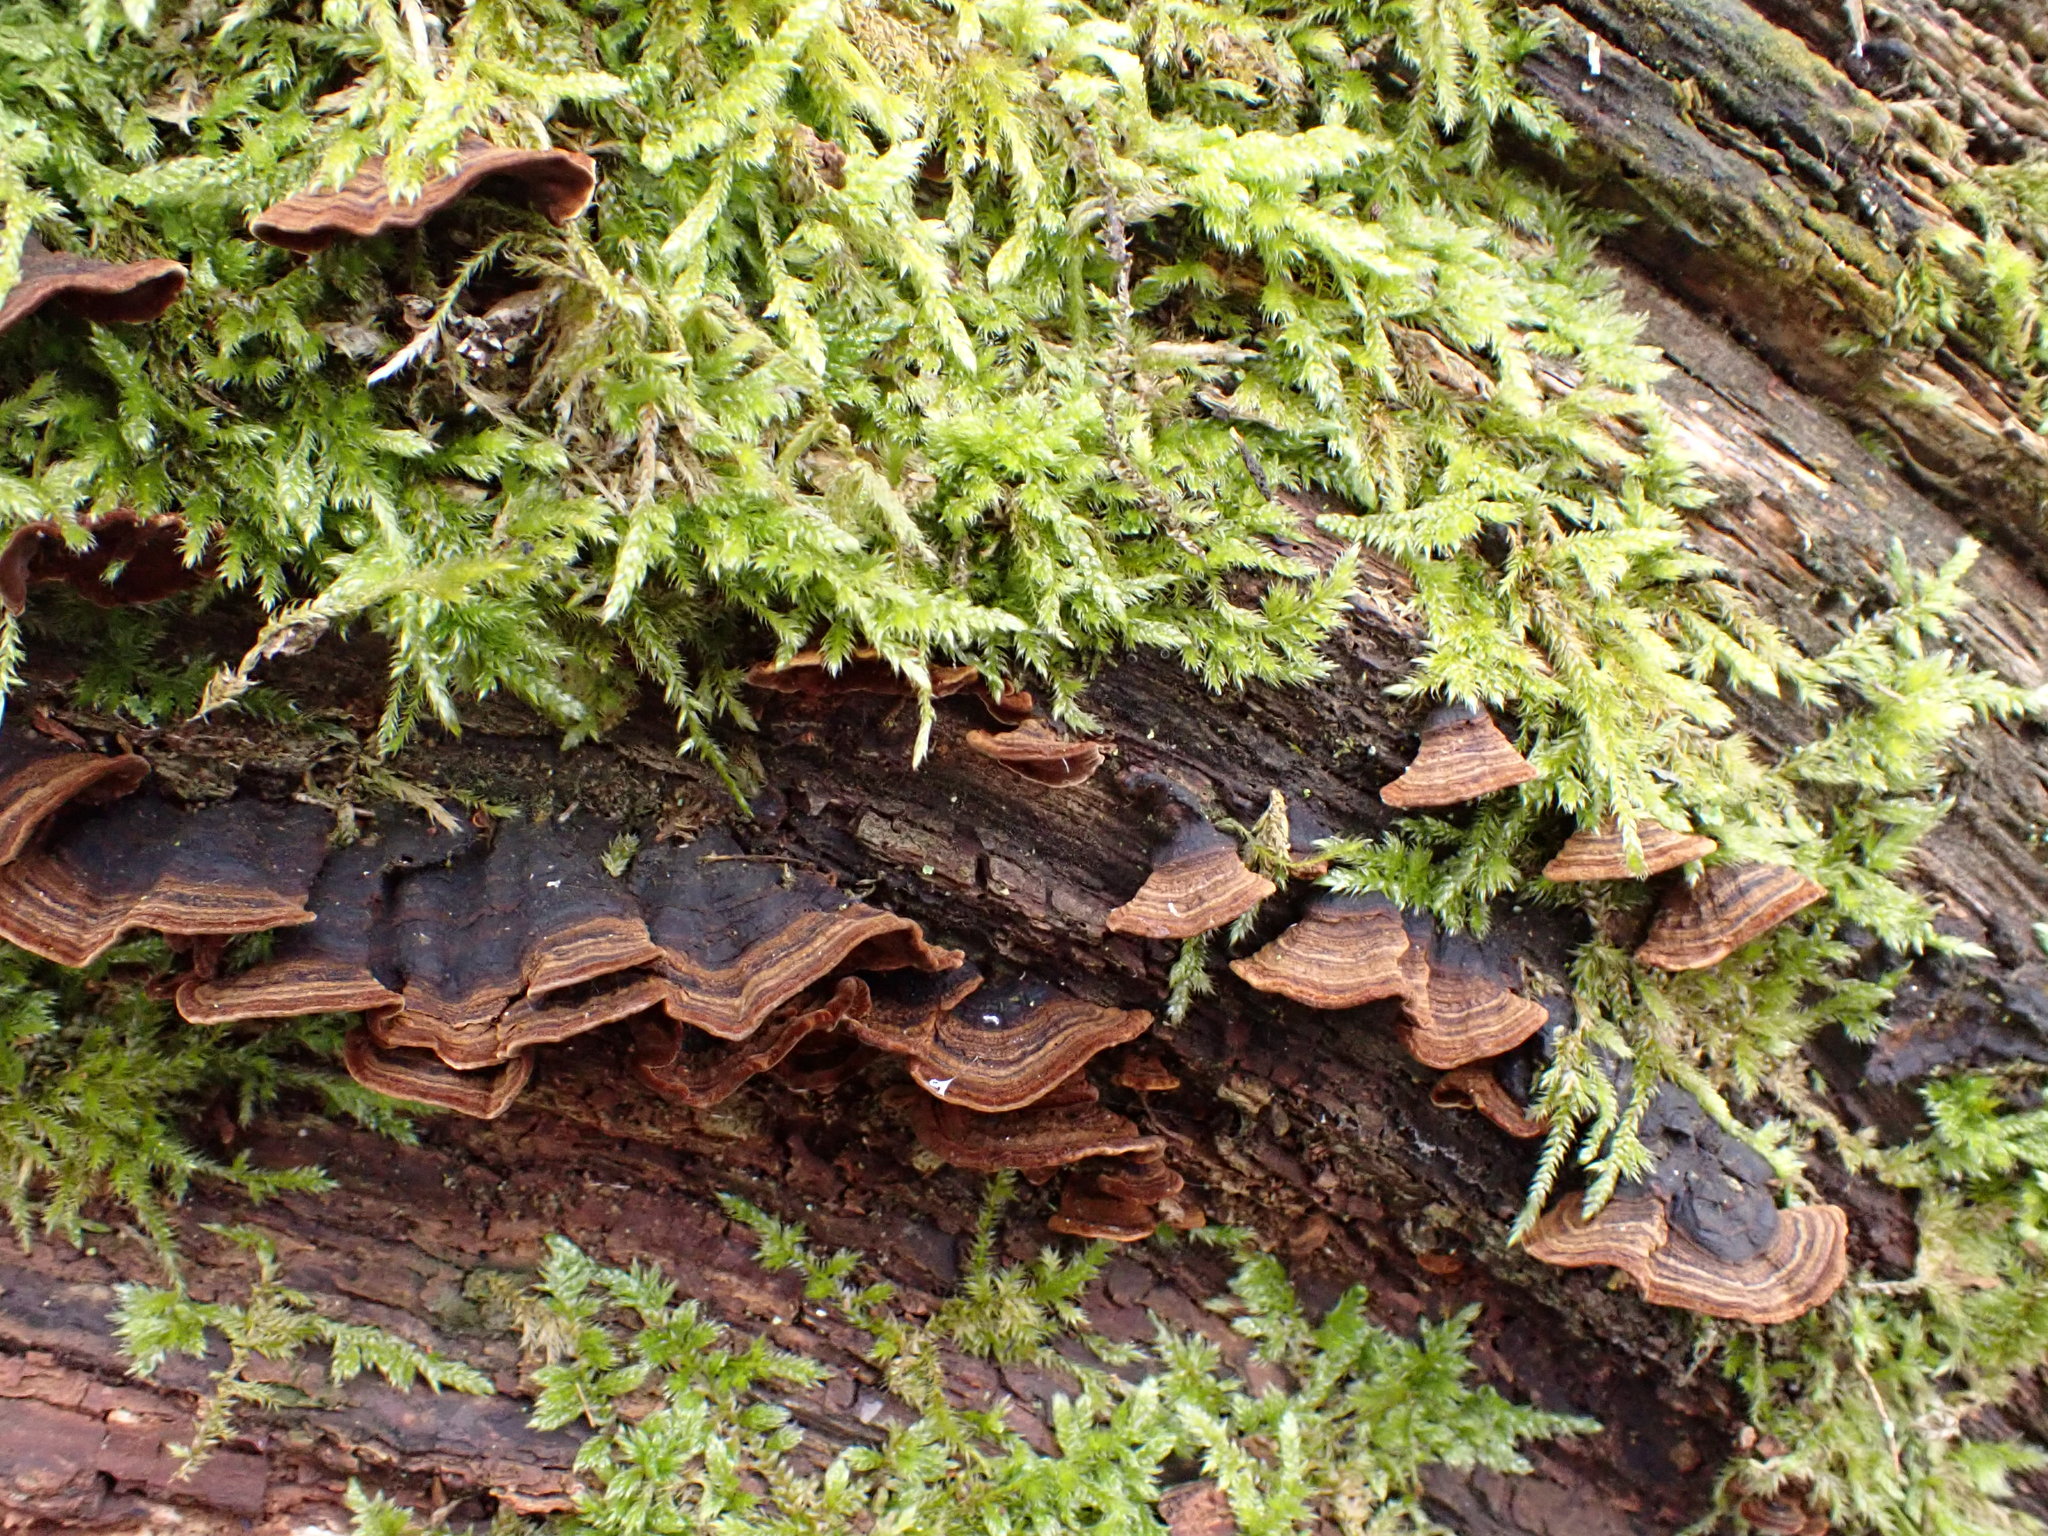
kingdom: Fungi
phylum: Basidiomycota
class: Agaricomycetes
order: Hymenochaetales
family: Hymenochaetaceae
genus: Hymenochaete
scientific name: Hymenochaete rubiginosa
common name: Oak curtain crust
